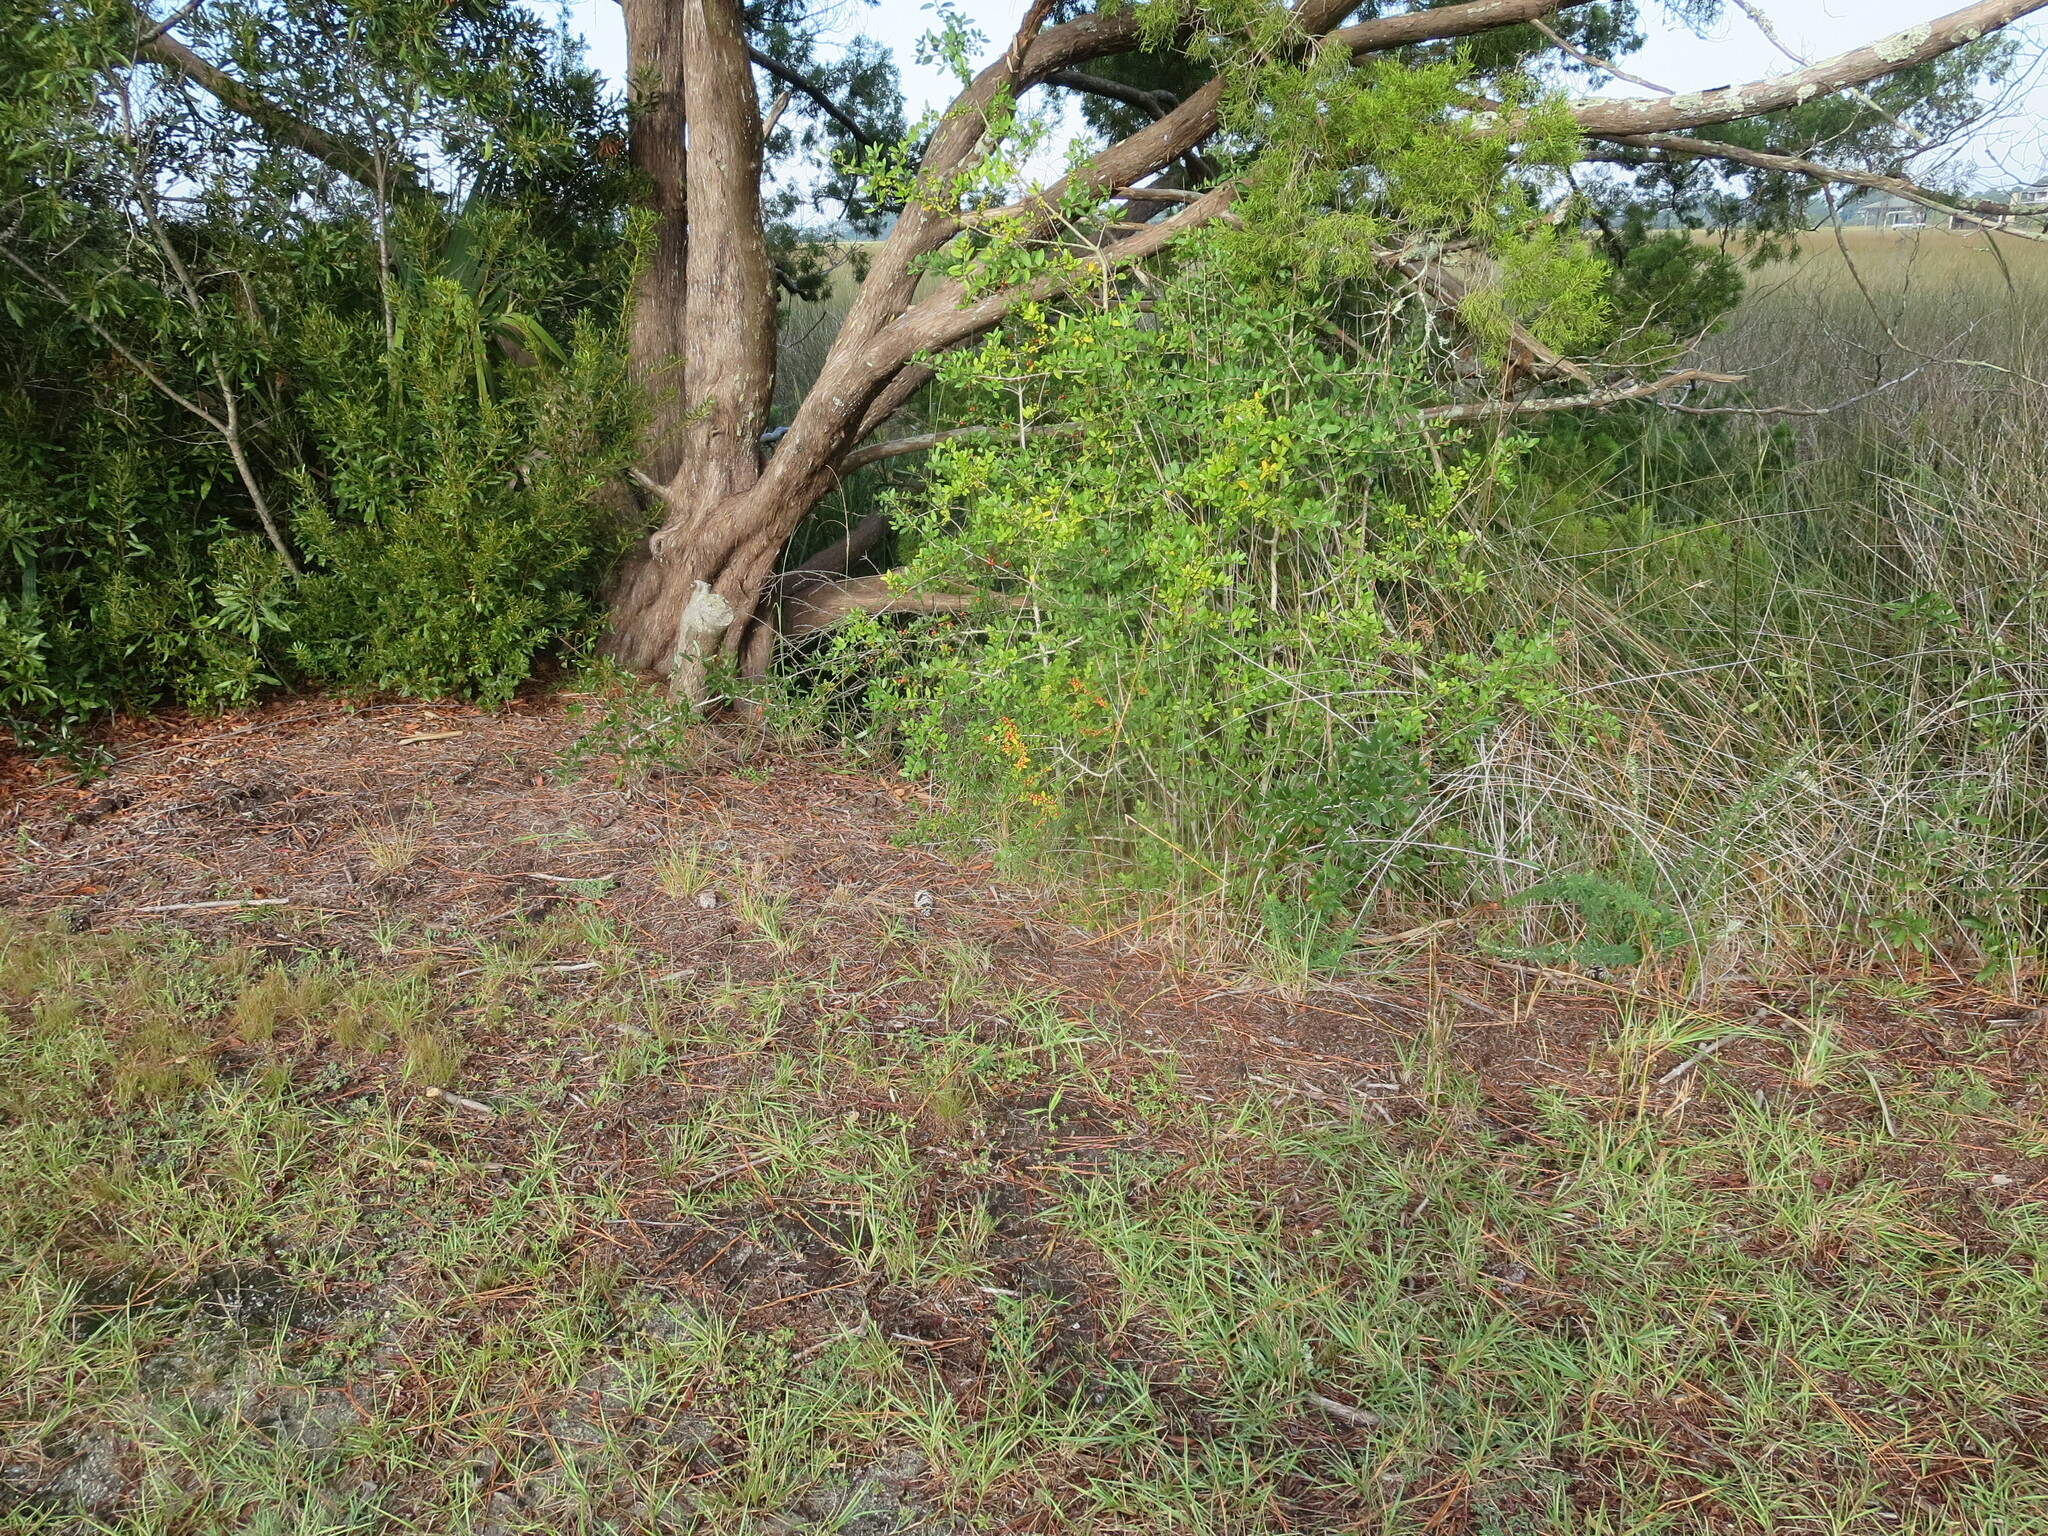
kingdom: Plantae
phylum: Tracheophyta
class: Magnoliopsida
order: Aquifoliales
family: Aquifoliaceae
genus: Ilex
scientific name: Ilex vomitoria
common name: Yaupon holly
